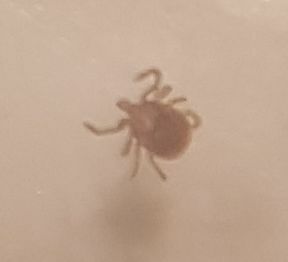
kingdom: Animalia
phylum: Arthropoda
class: Arachnida
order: Ixodida
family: Ixodidae
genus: Amblyomma
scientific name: Amblyomma americanum
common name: Lone star tick
